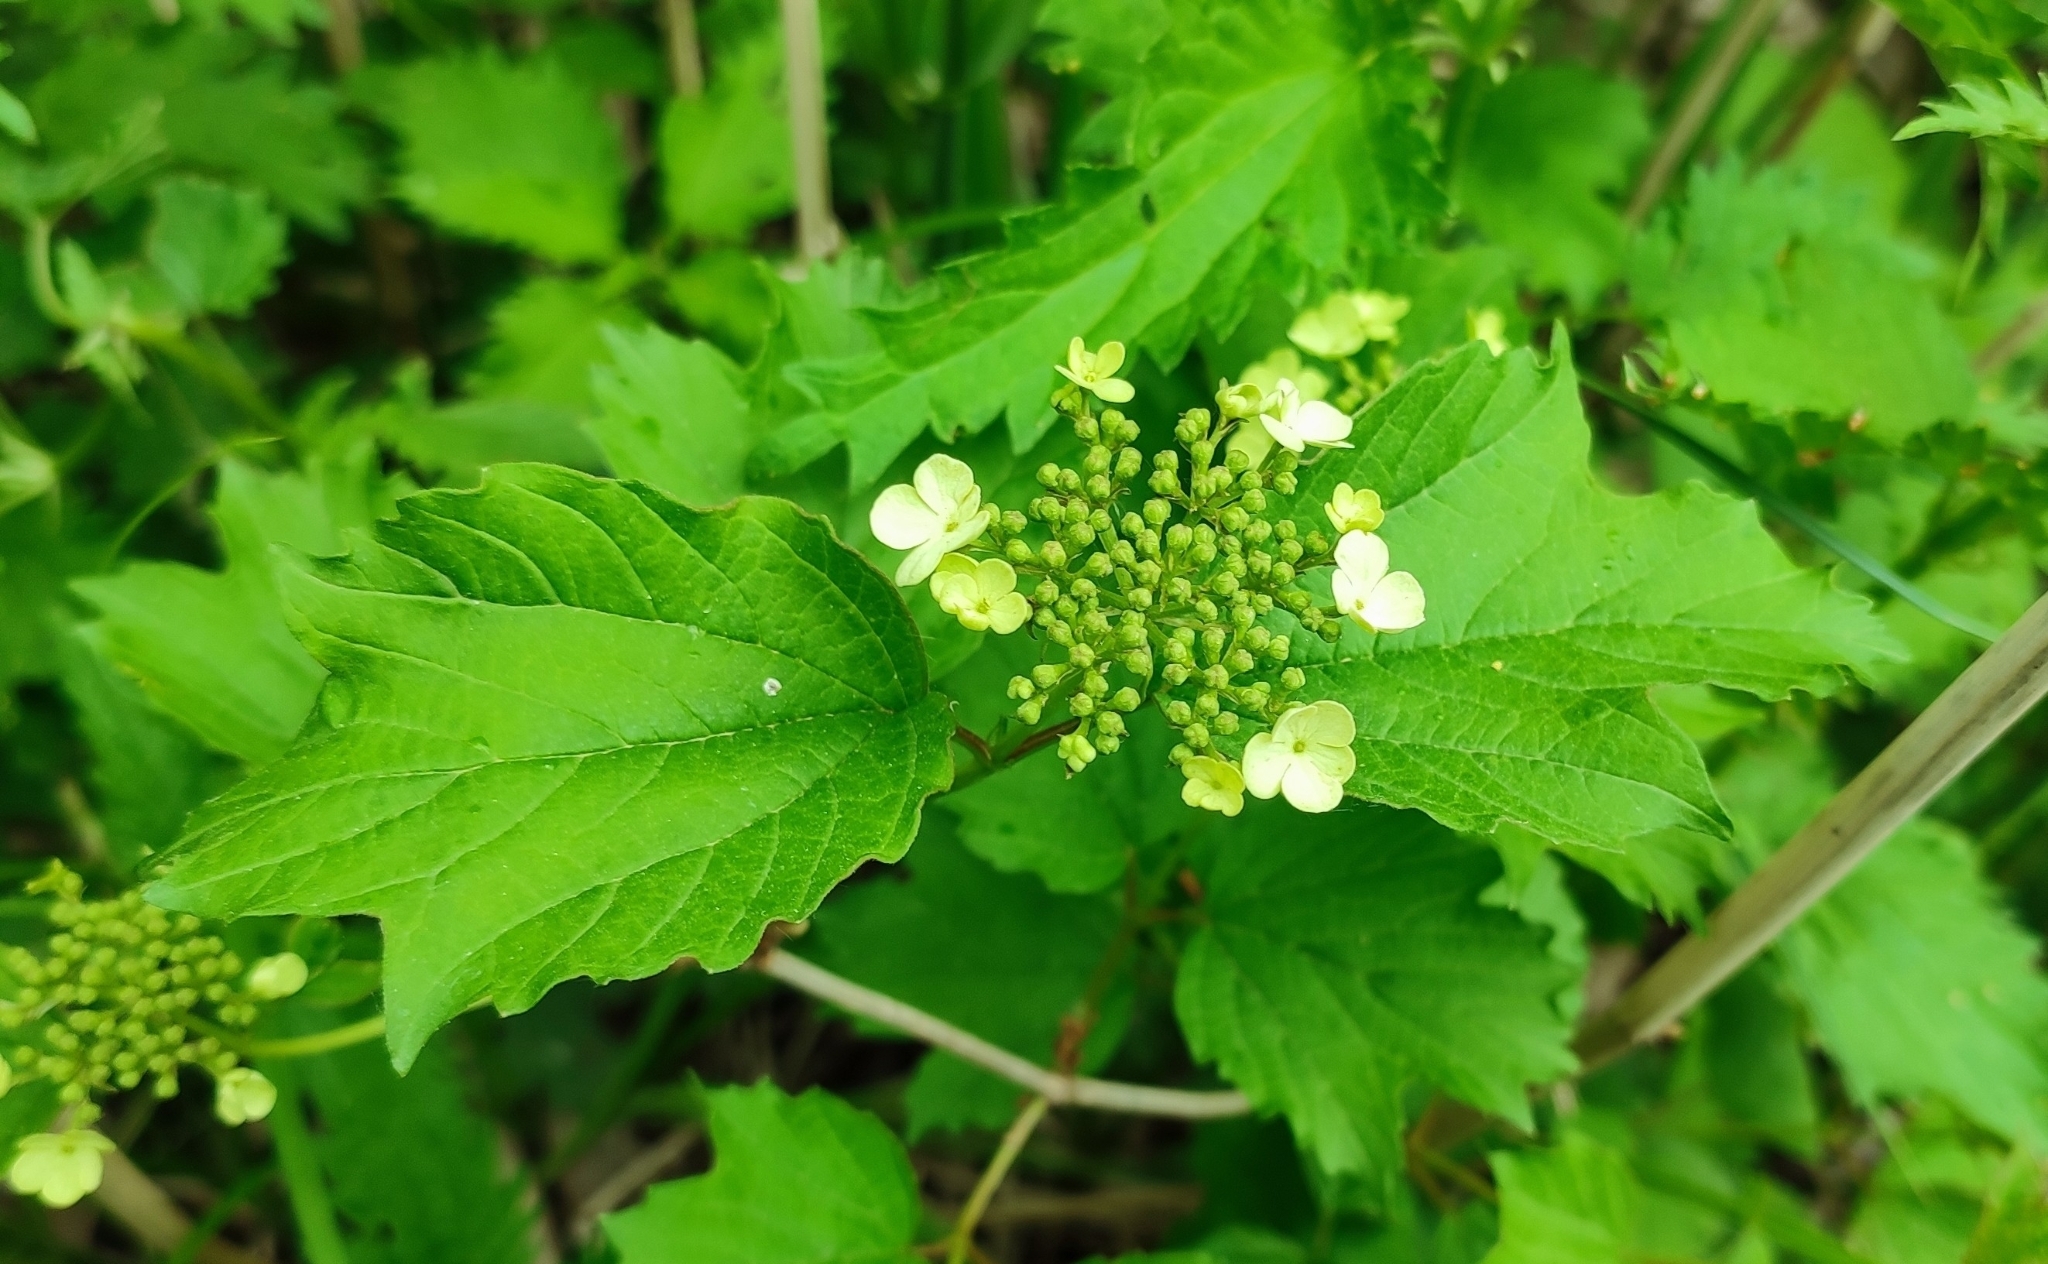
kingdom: Plantae
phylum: Tracheophyta
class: Magnoliopsida
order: Dipsacales
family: Viburnaceae
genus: Viburnum
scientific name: Viburnum opulus
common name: Guelder-rose
